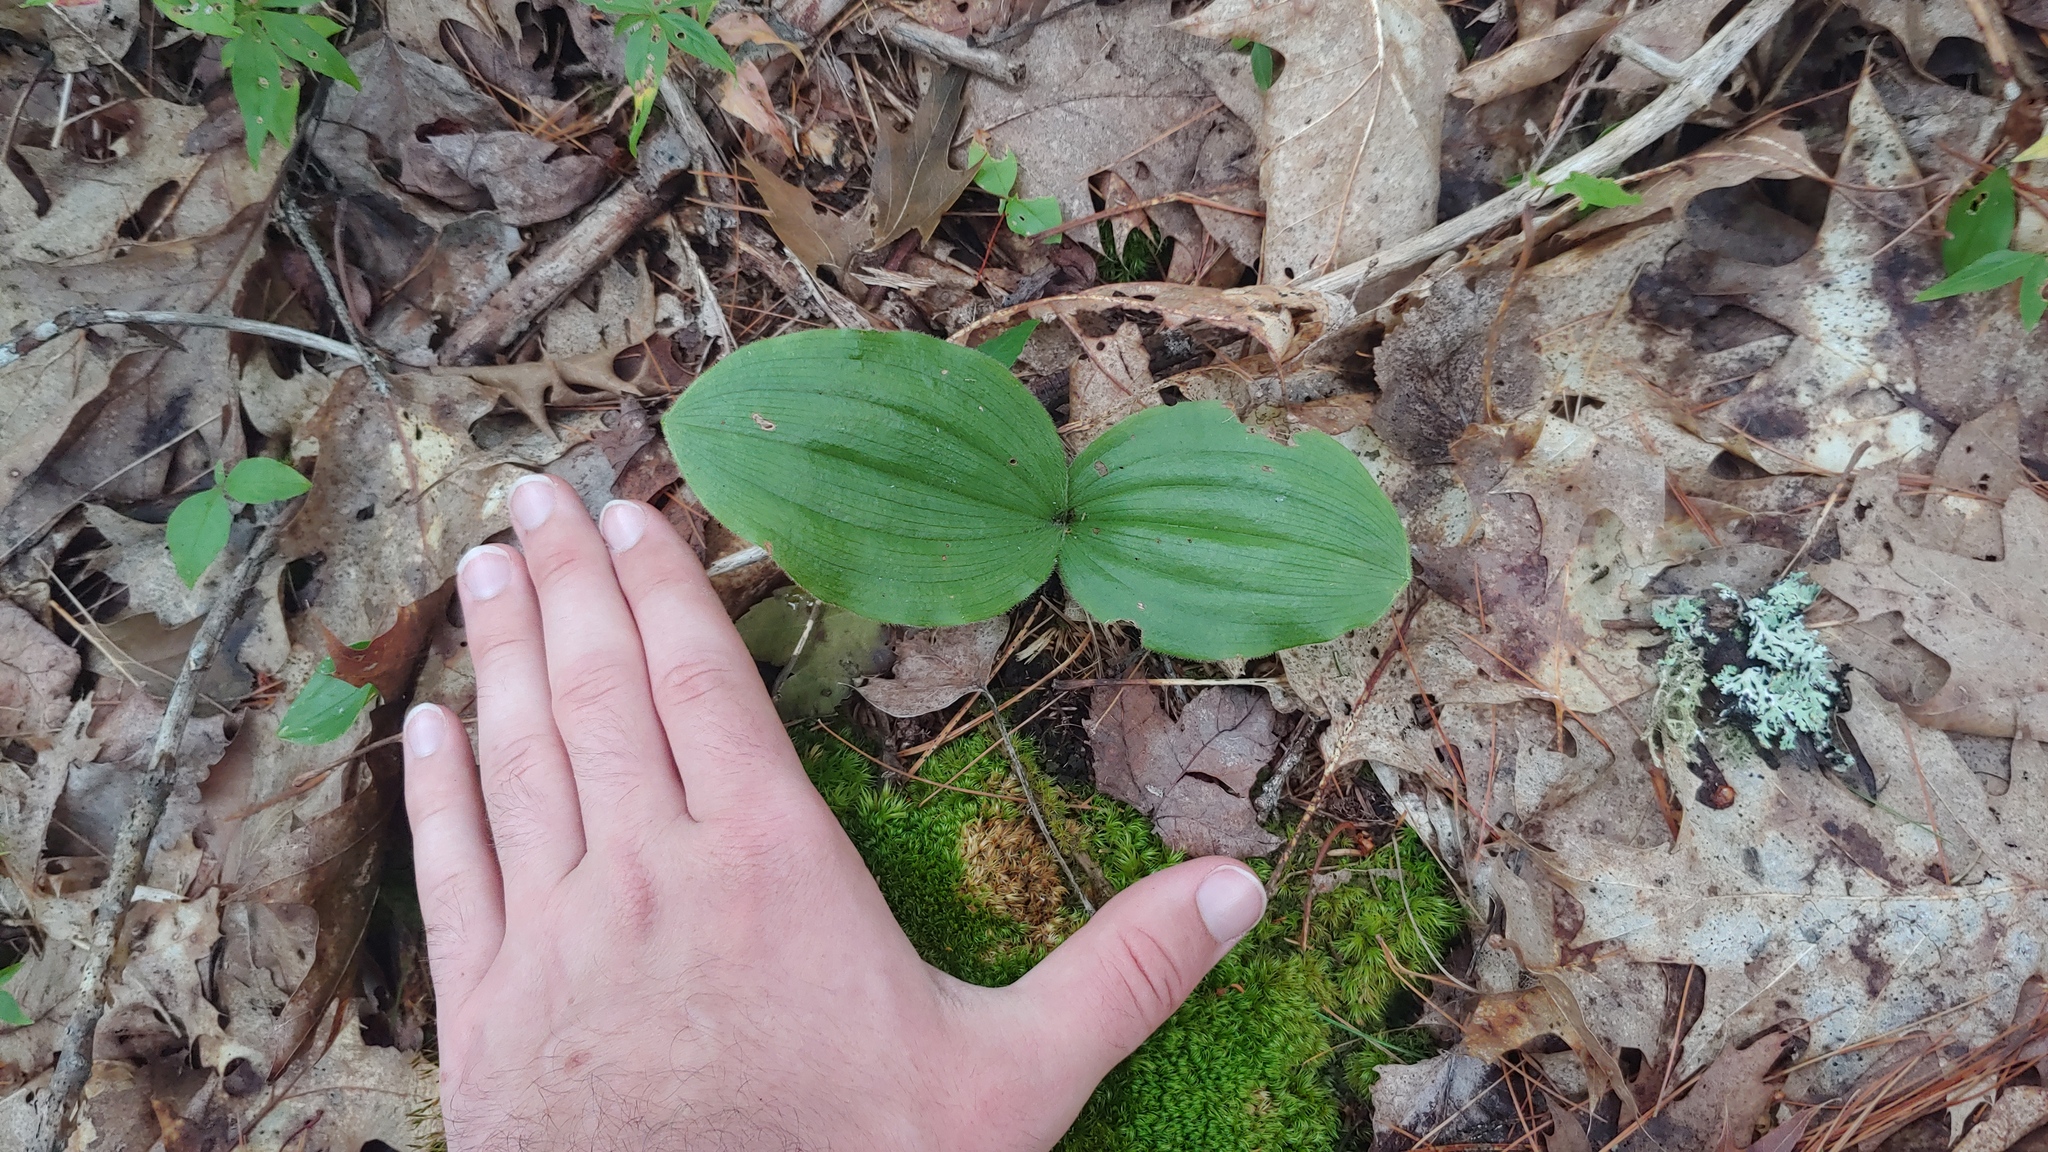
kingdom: Plantae
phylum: Tracheophyta
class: Liliopsida
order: Asparagales
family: Orchidaceae
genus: Cypripedium
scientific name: Cypripedium acaule
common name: Pink lady's-slipper
